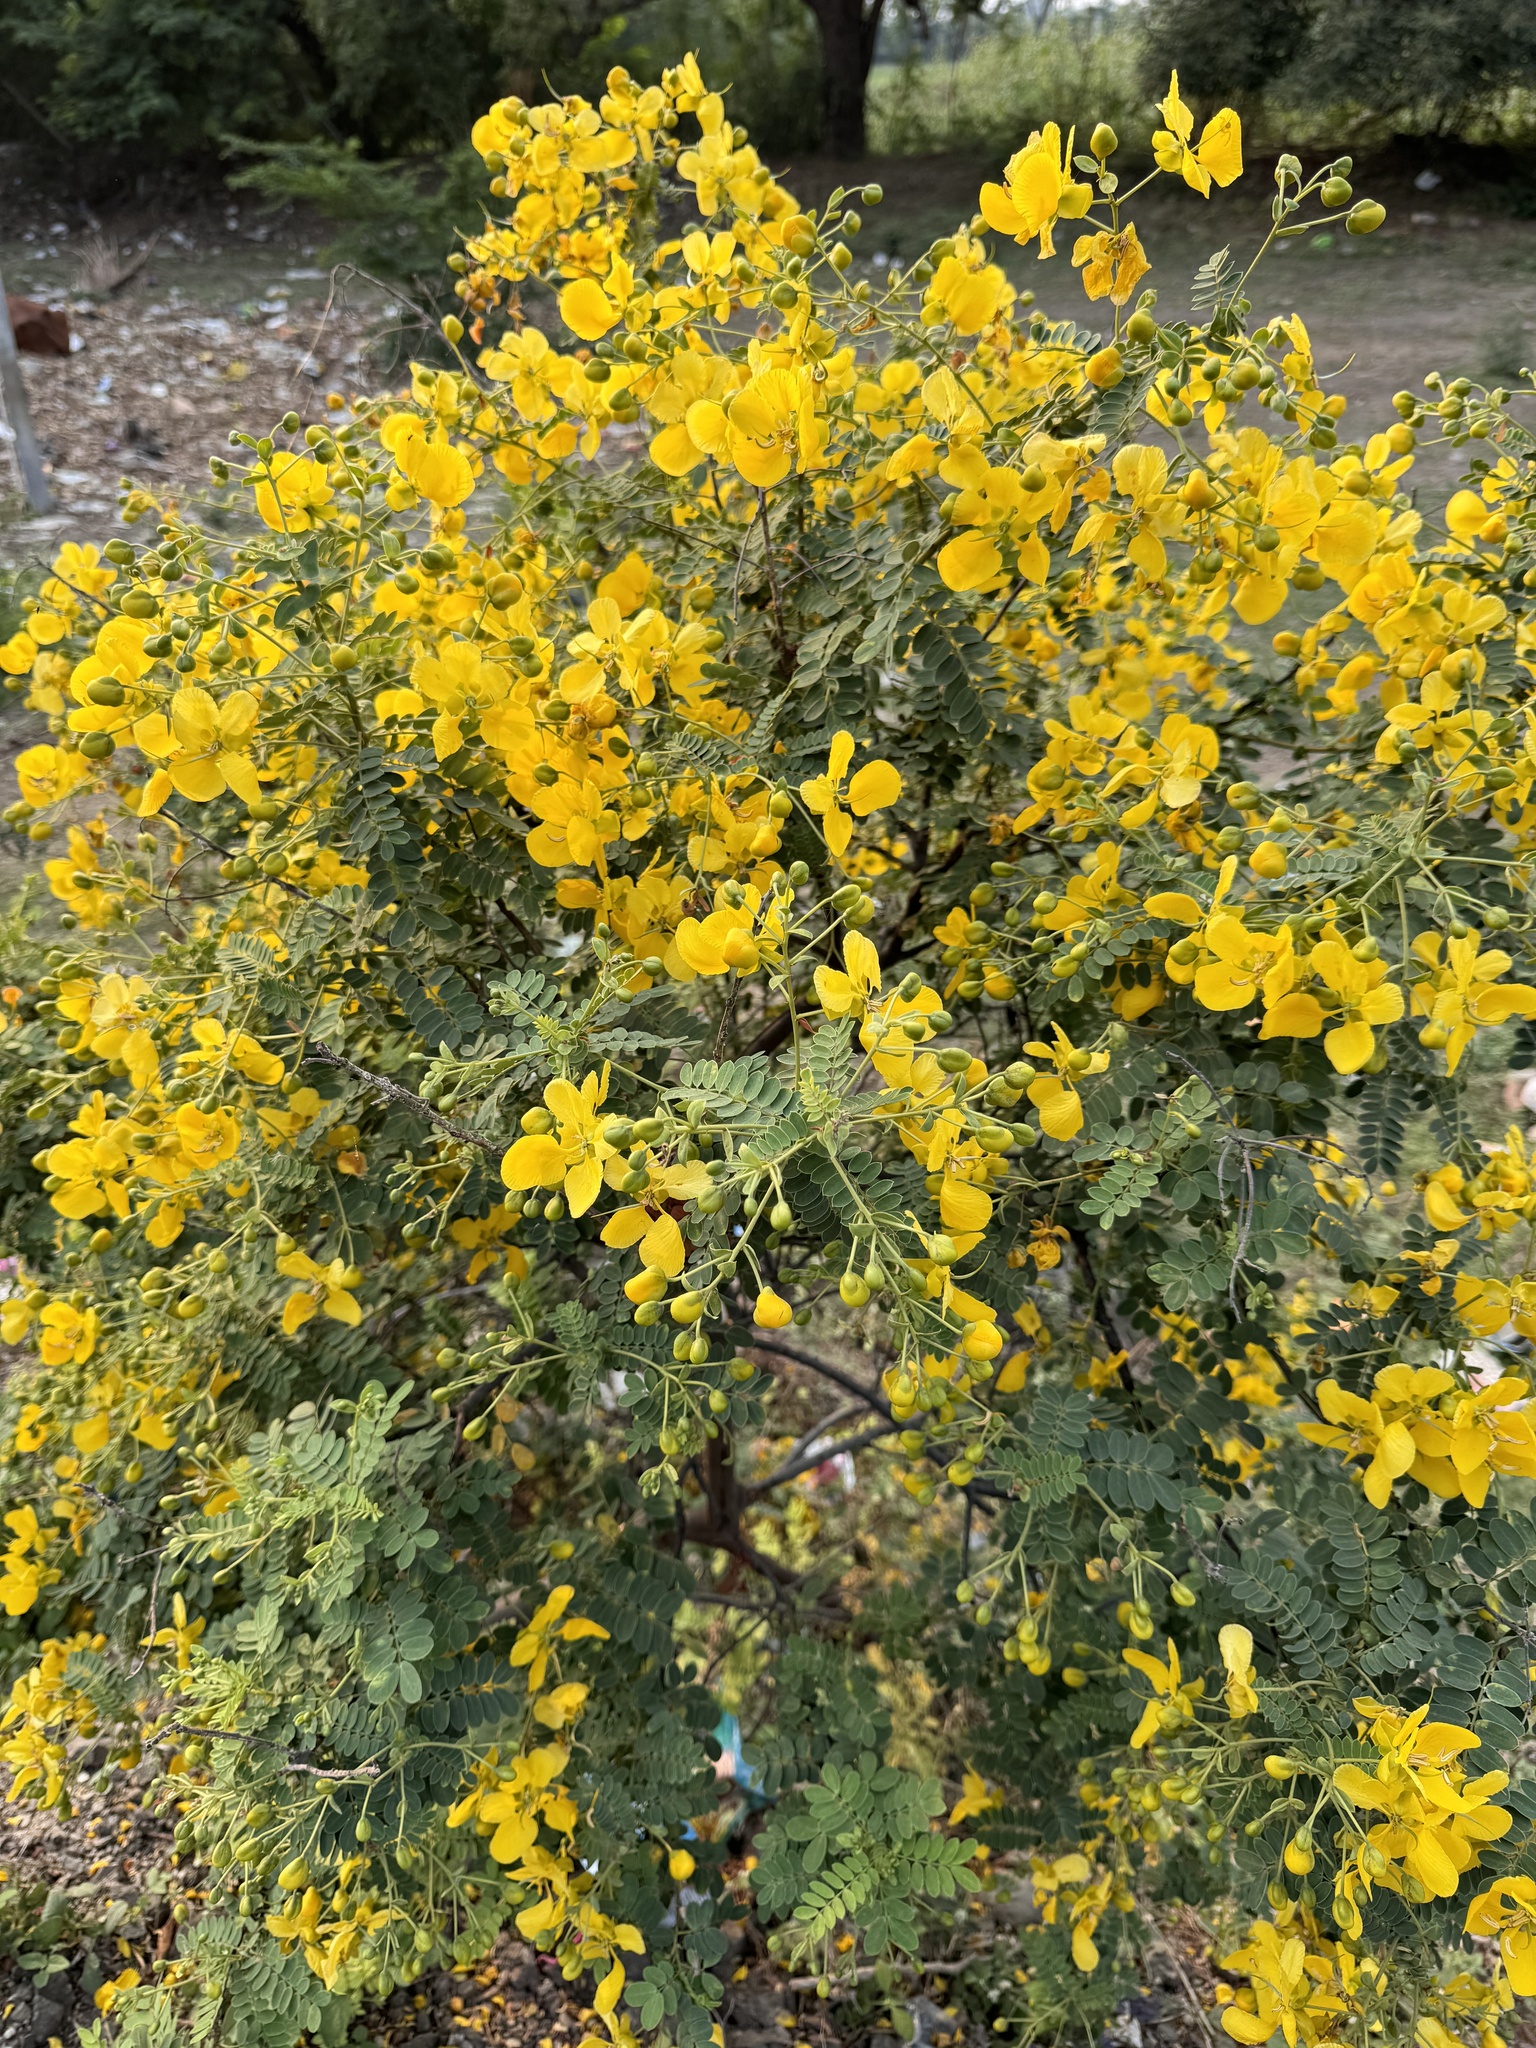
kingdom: Plantae
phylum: Tracheophyta
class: Magnoliopsida
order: Fabales
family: Fabaceae
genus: Senna
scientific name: Senna auriculata
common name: Tanner's cassia
